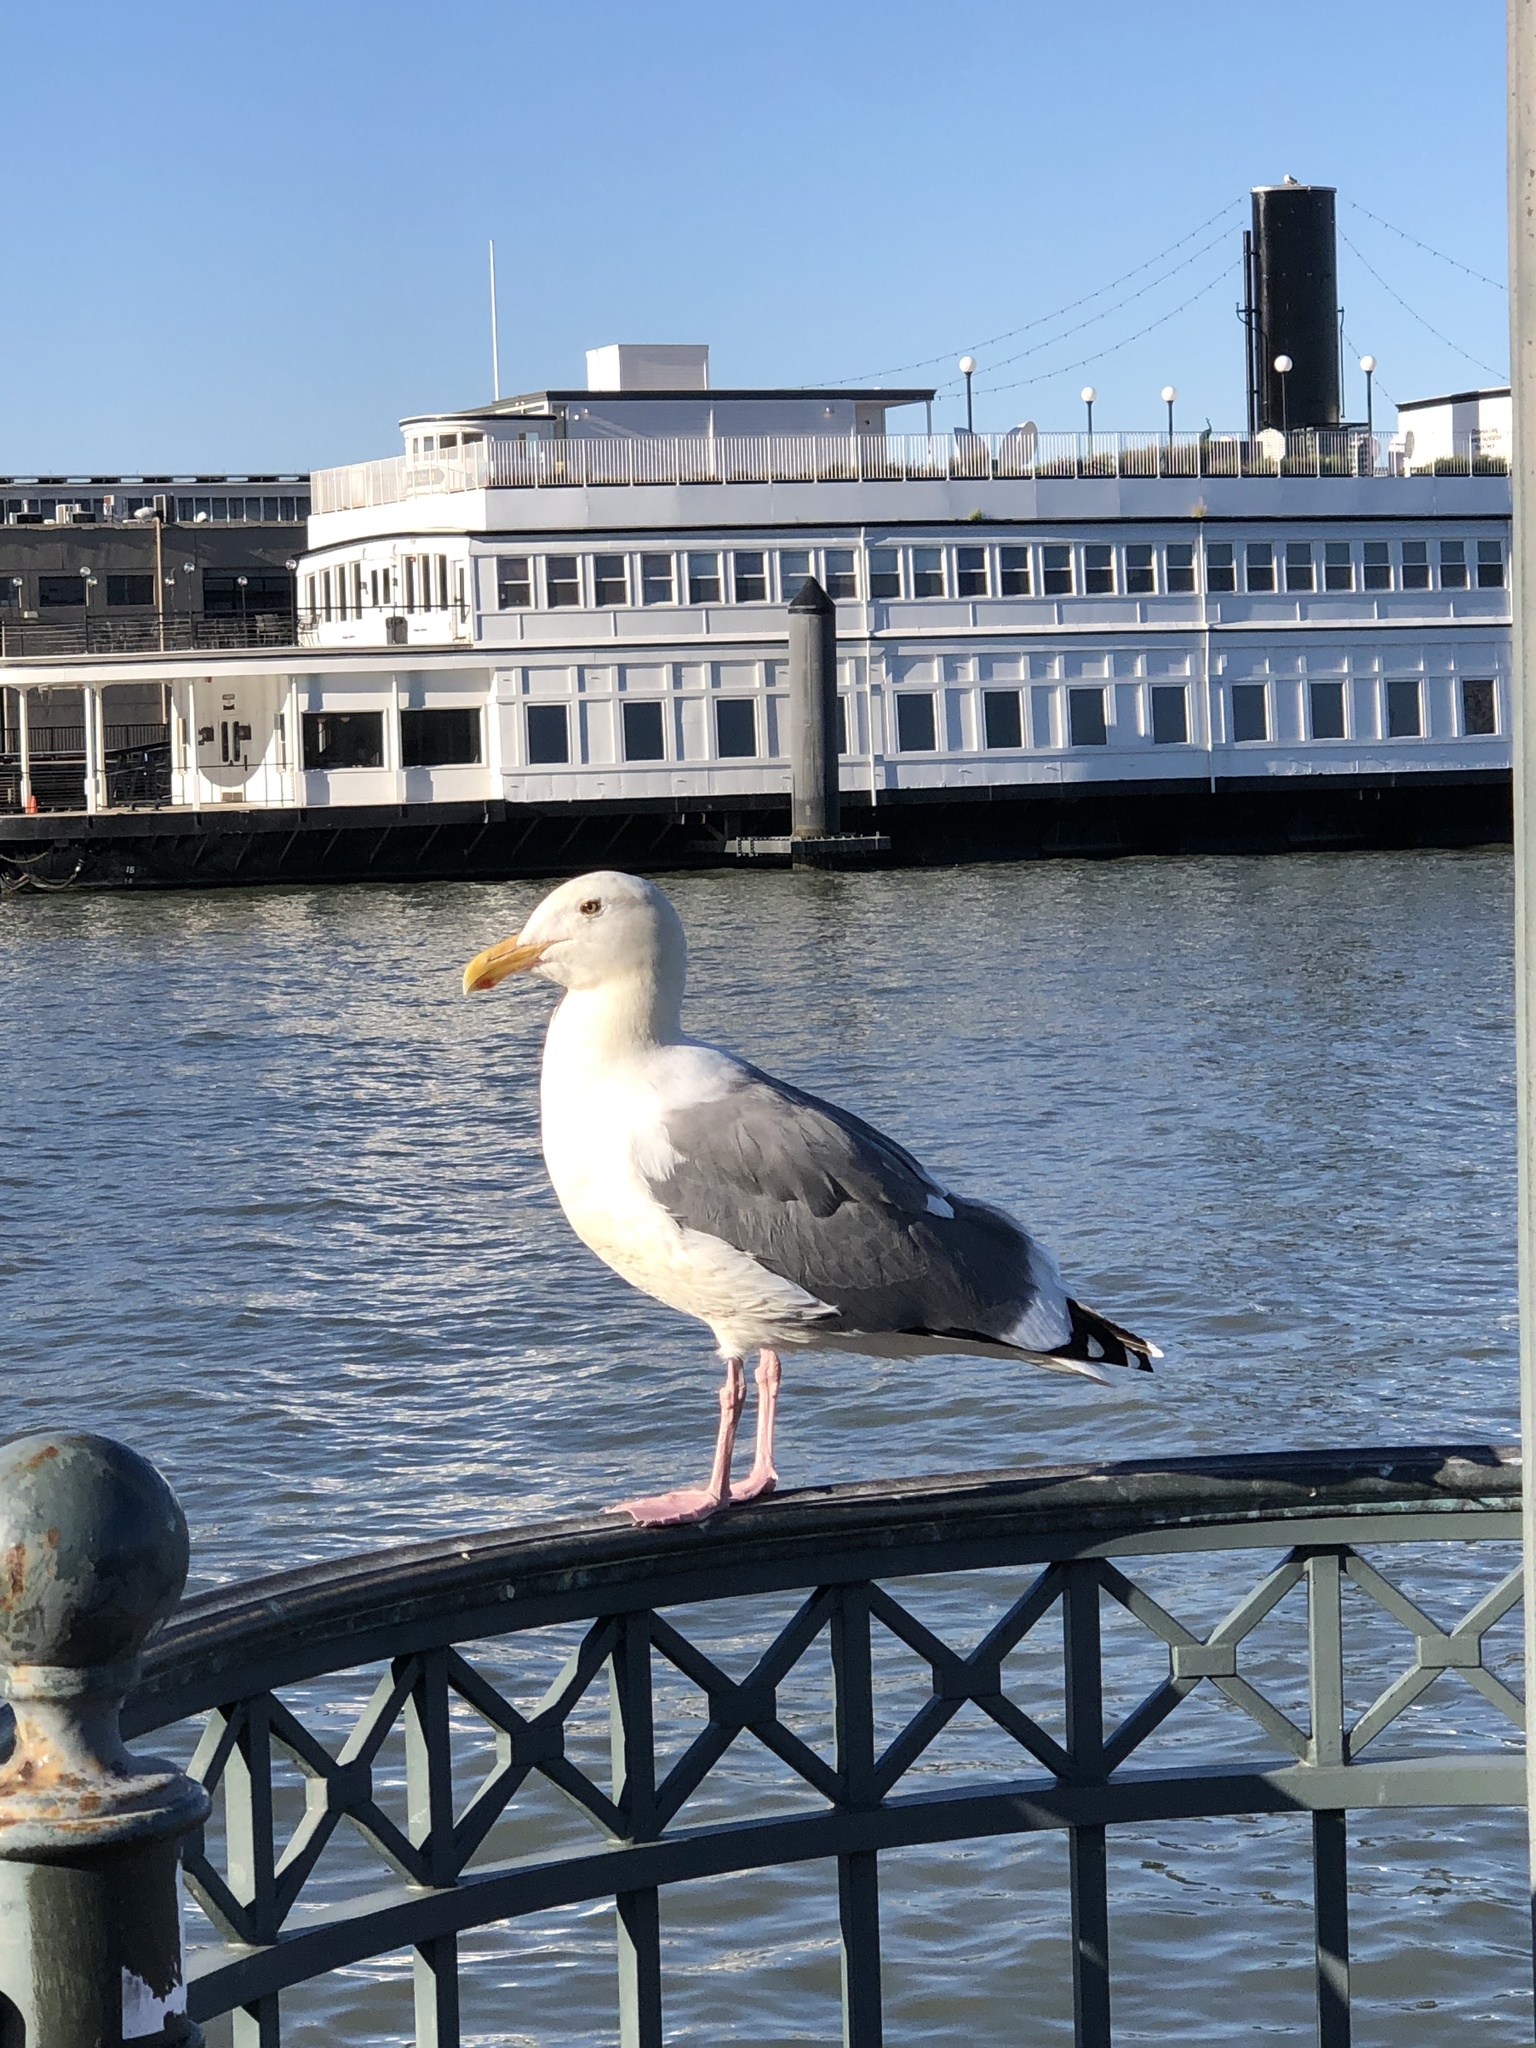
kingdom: Animalia
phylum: Chordata
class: Aves
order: Charadriiformes
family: Laridae
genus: Larus
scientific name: Larus occidentalis
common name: Western gull
